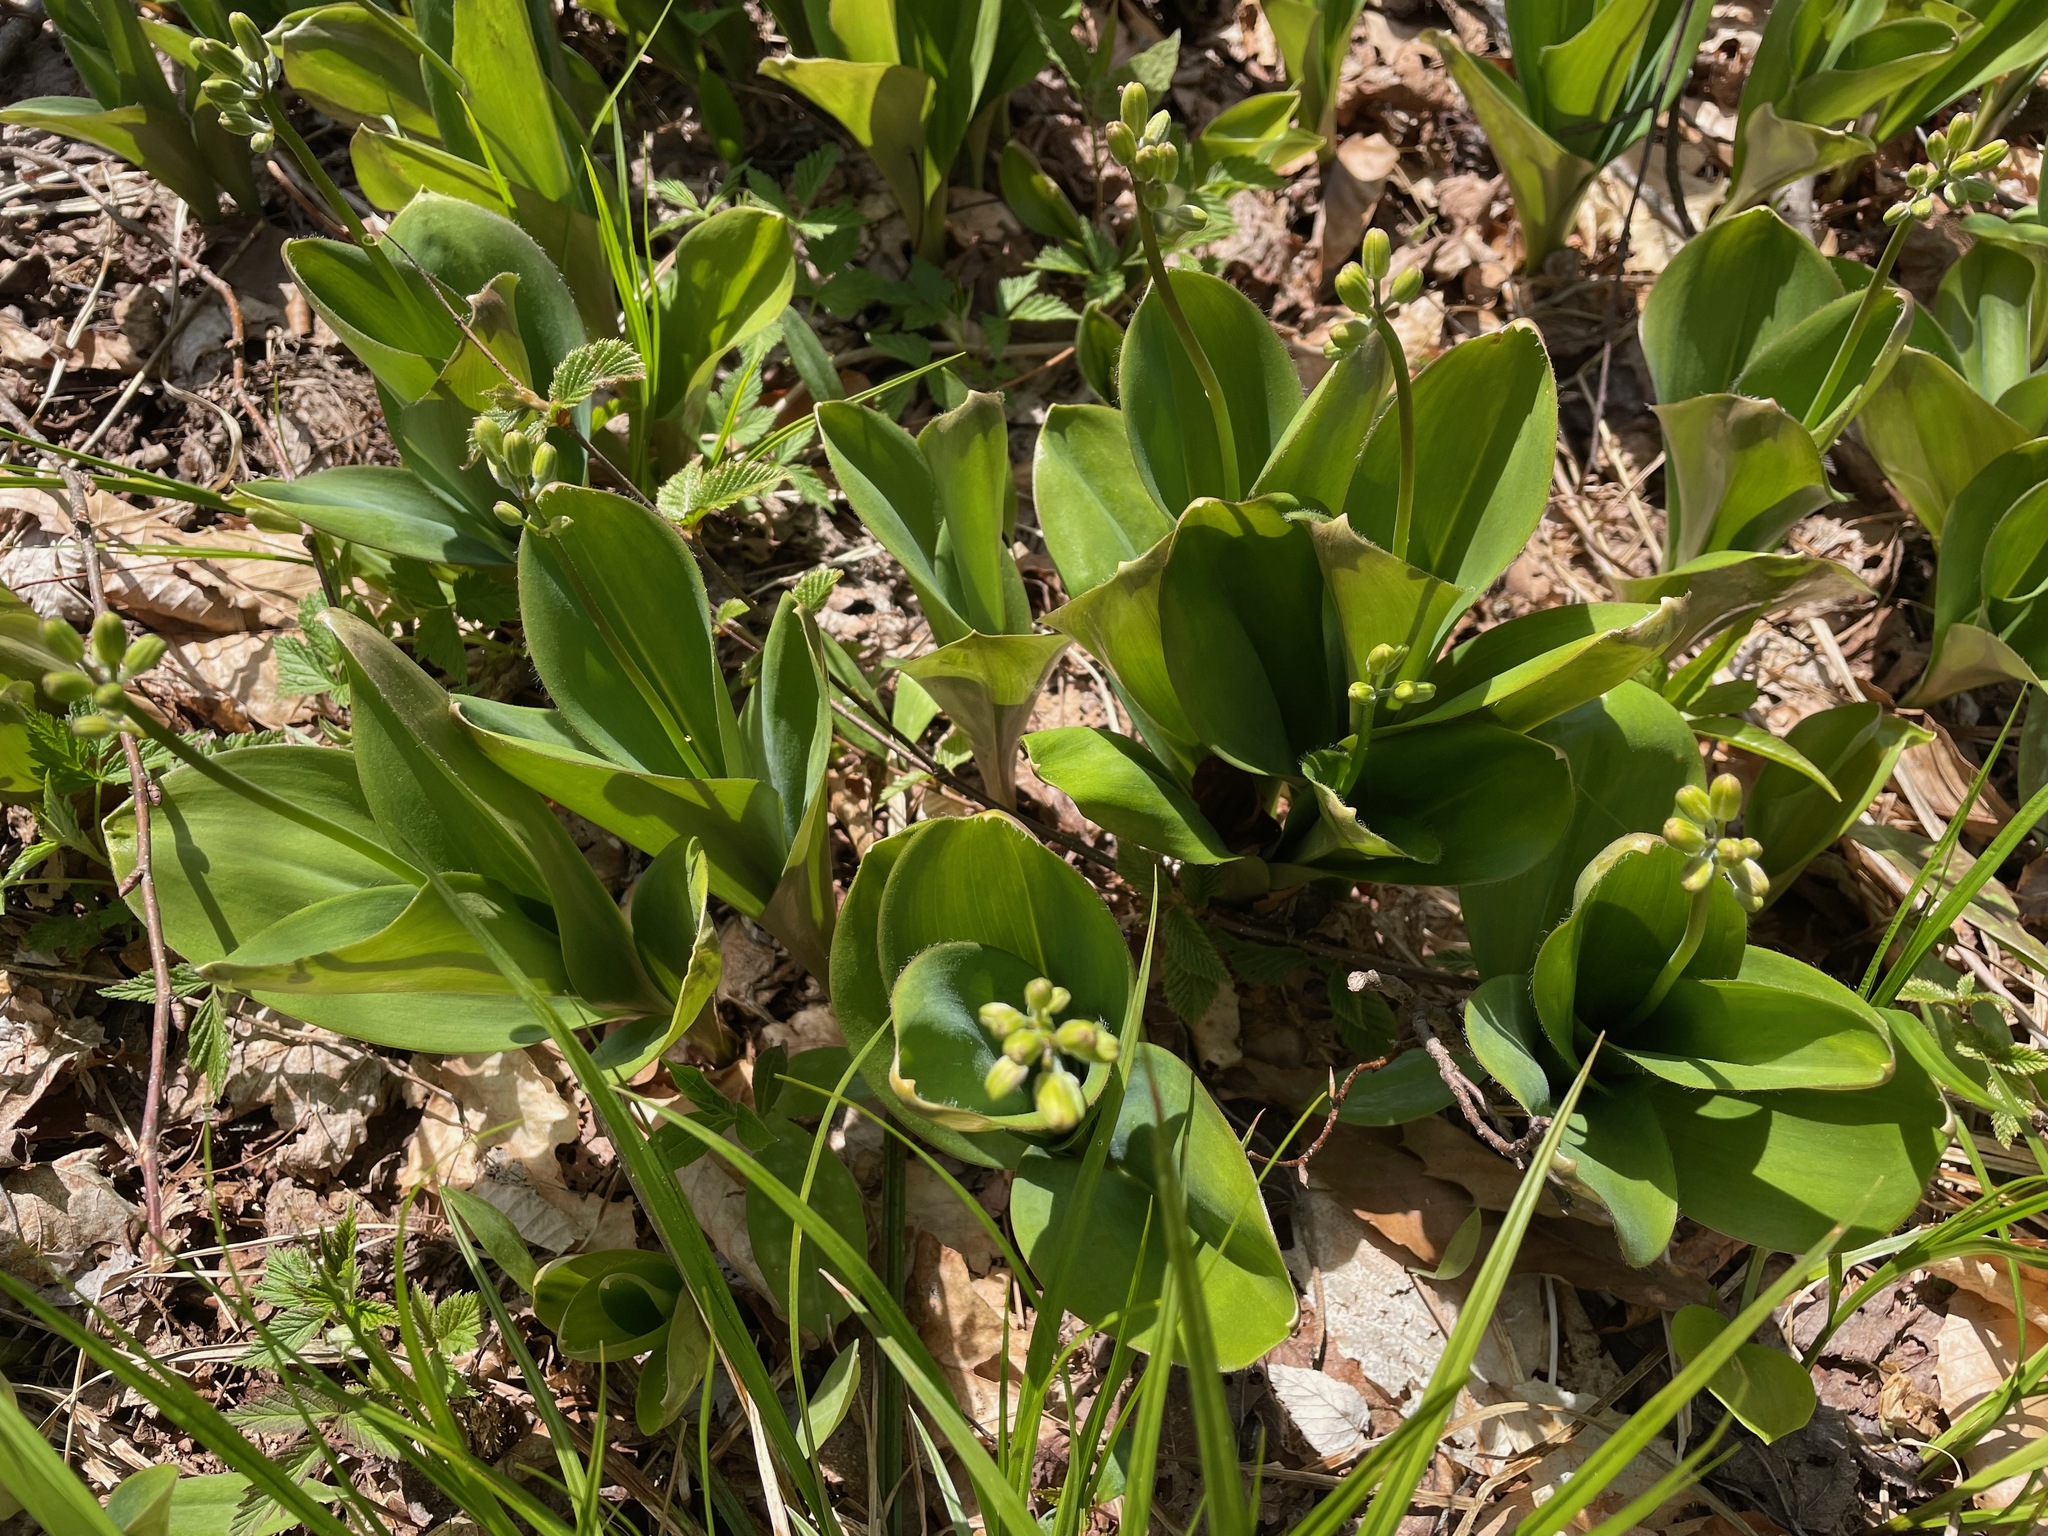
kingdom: Plantae
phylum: Tracheophyta
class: Liliopsida
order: Liliales
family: Liliaceae
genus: Clintonia
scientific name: Clintonia borealis
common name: Yellow clintonia
